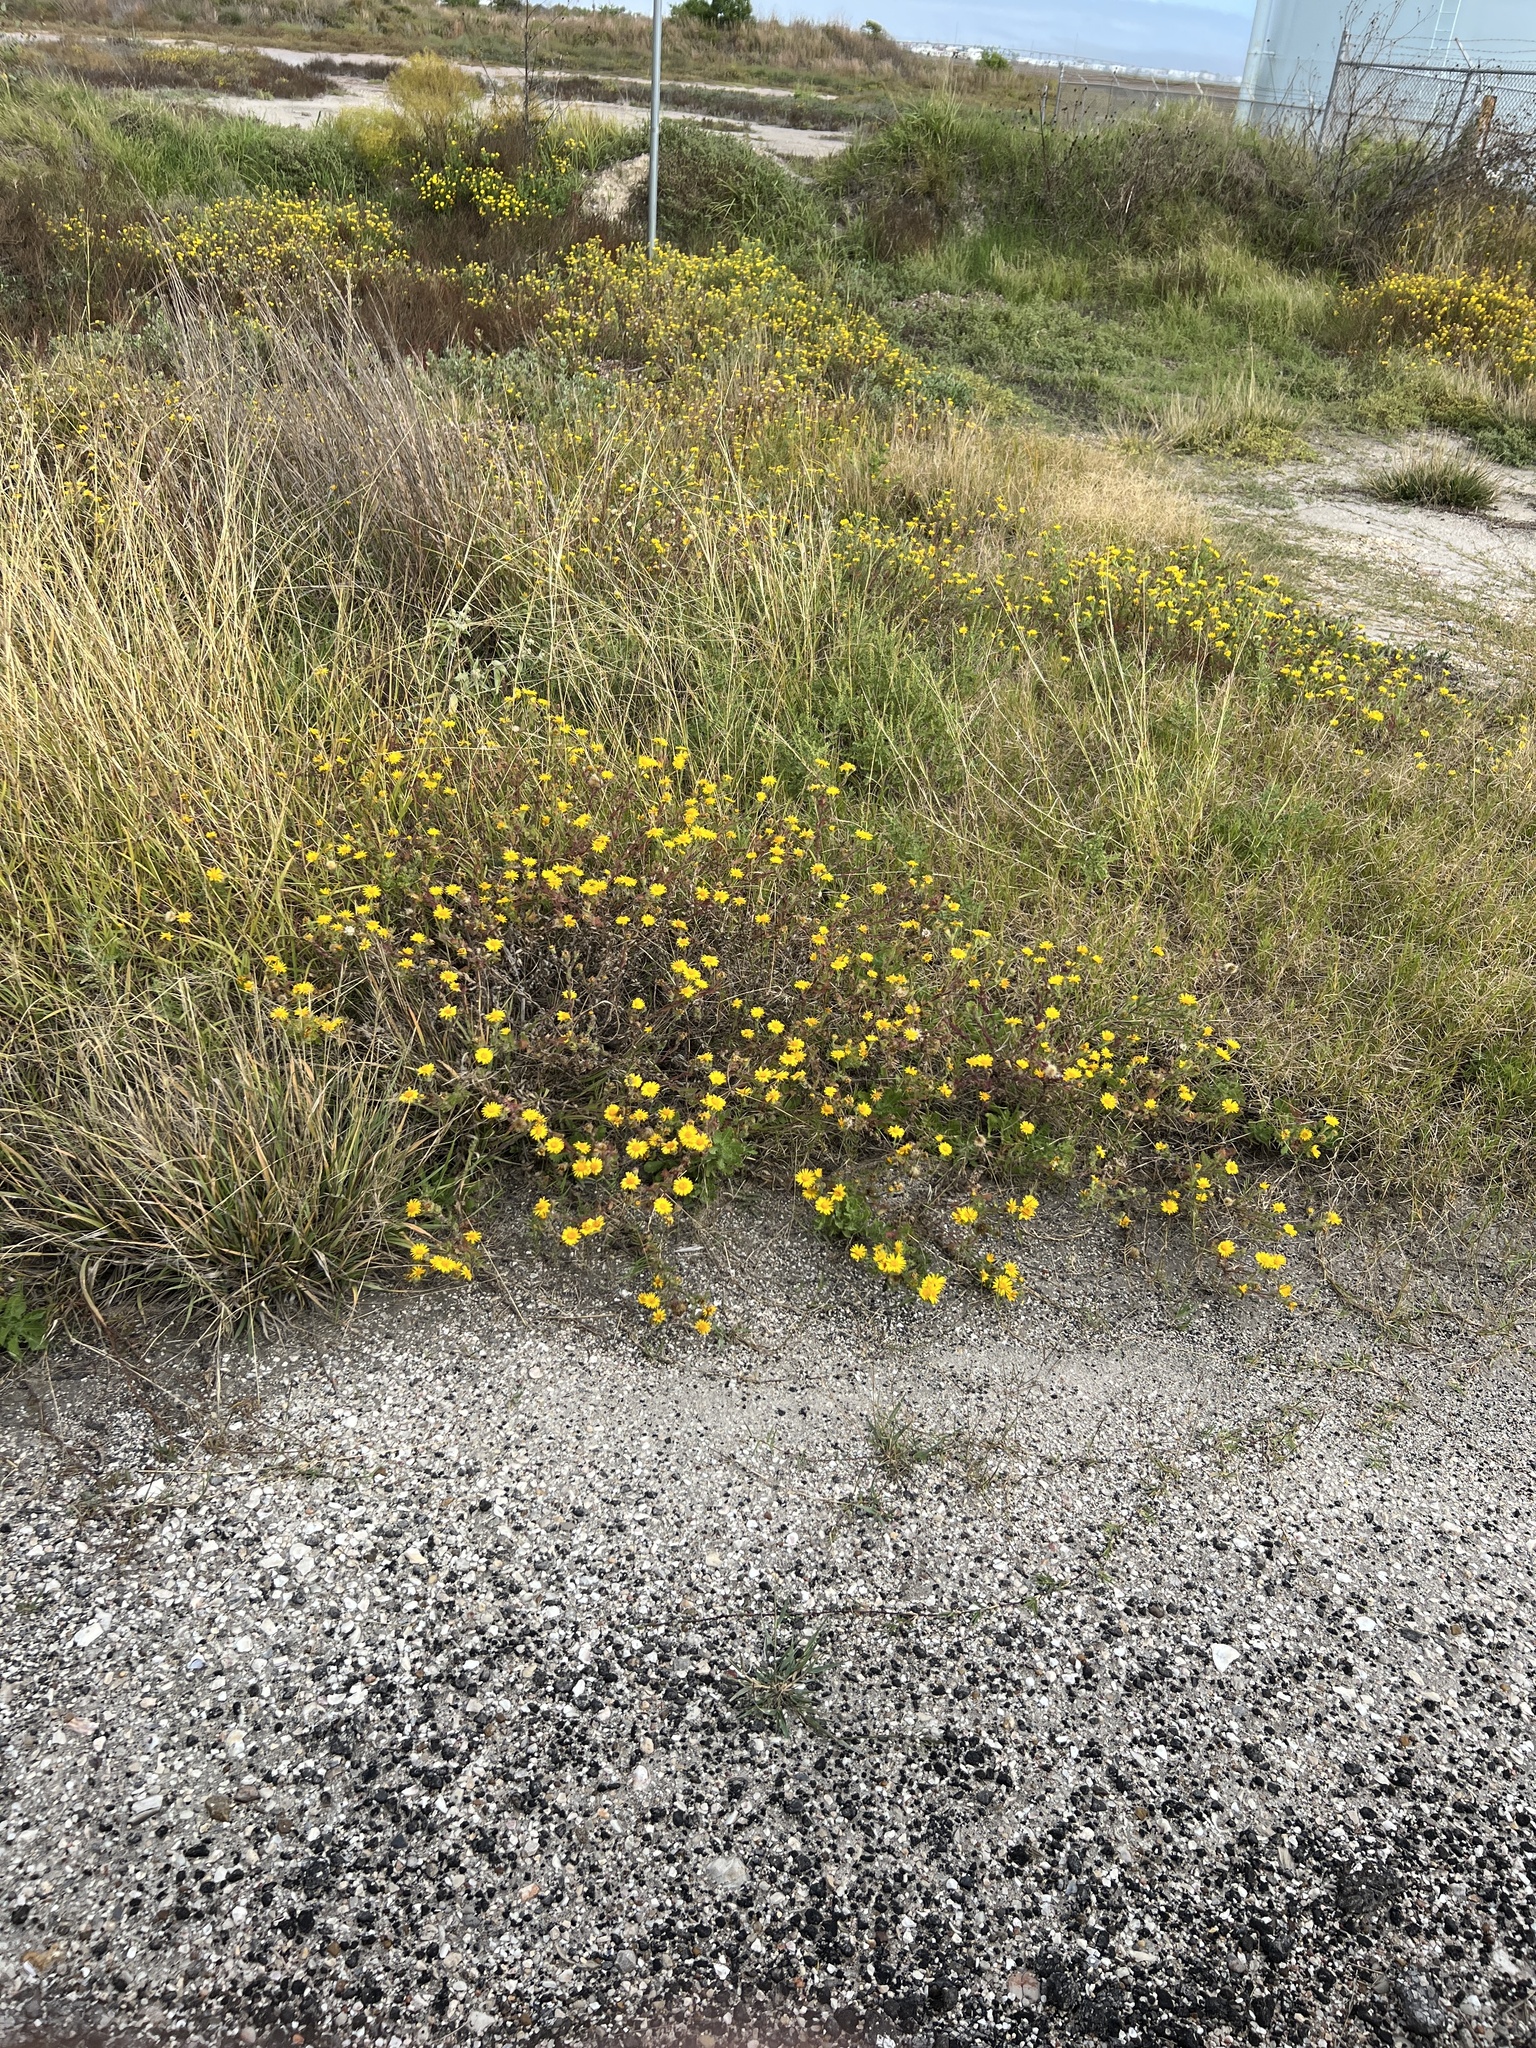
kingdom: Plantae
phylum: Tracheophyta
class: Magnoliopsida
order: Asterales
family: Asteraceae
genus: Rayjacksonia
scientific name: Rayjacksonia phyllocephala
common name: Gulf coast camphor daisy
